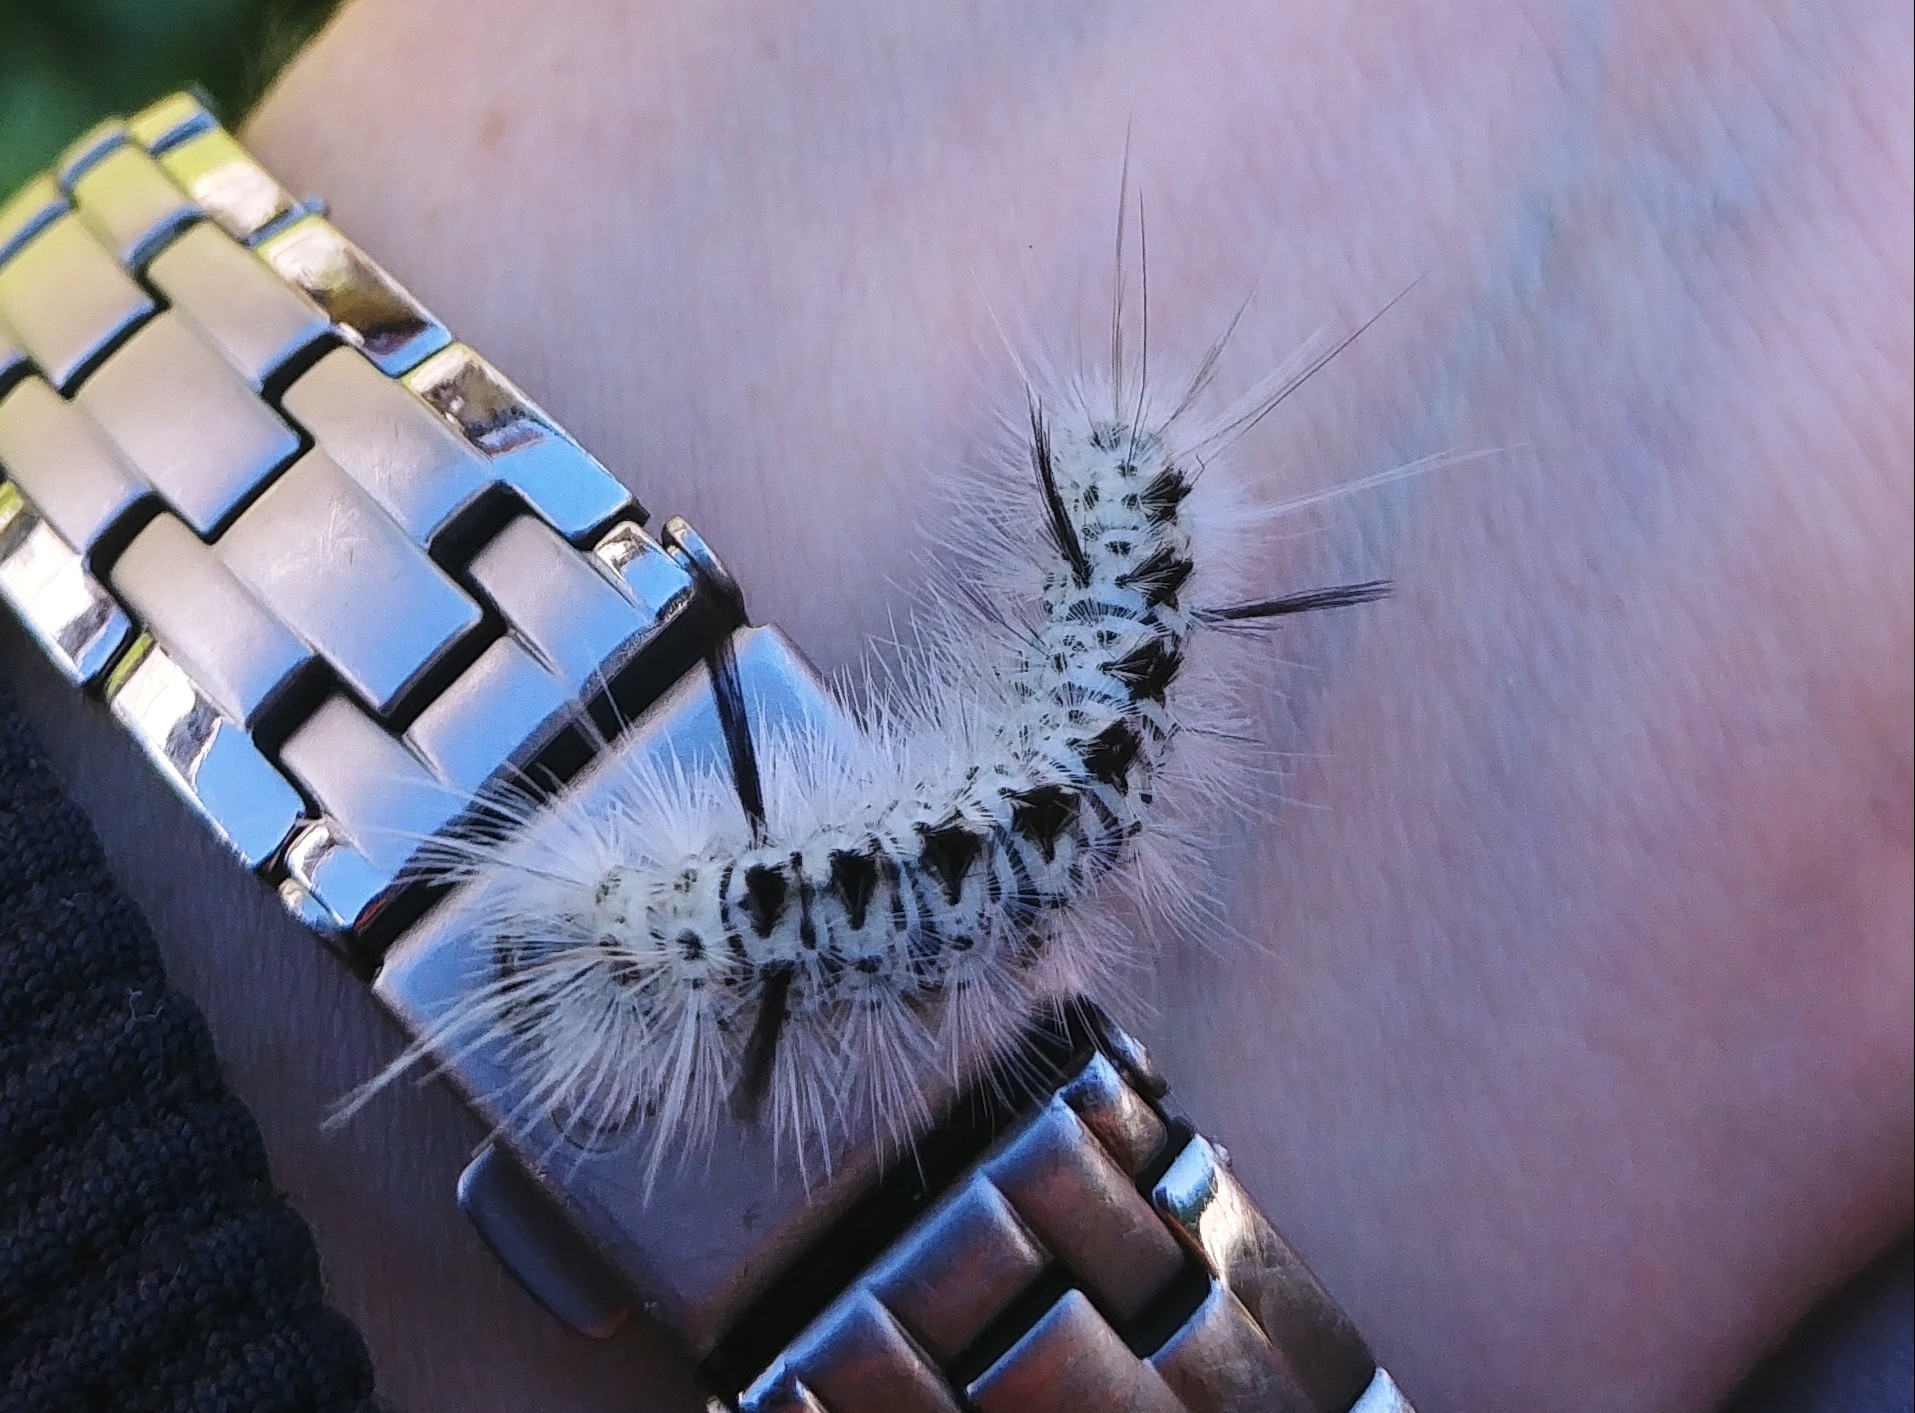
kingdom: Animalia
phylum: Arthropoda
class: Insecta
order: Lepidoptera
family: Erebidae
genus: Lophocampa
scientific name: Lophocampa caryae
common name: Hickory tussock moth
